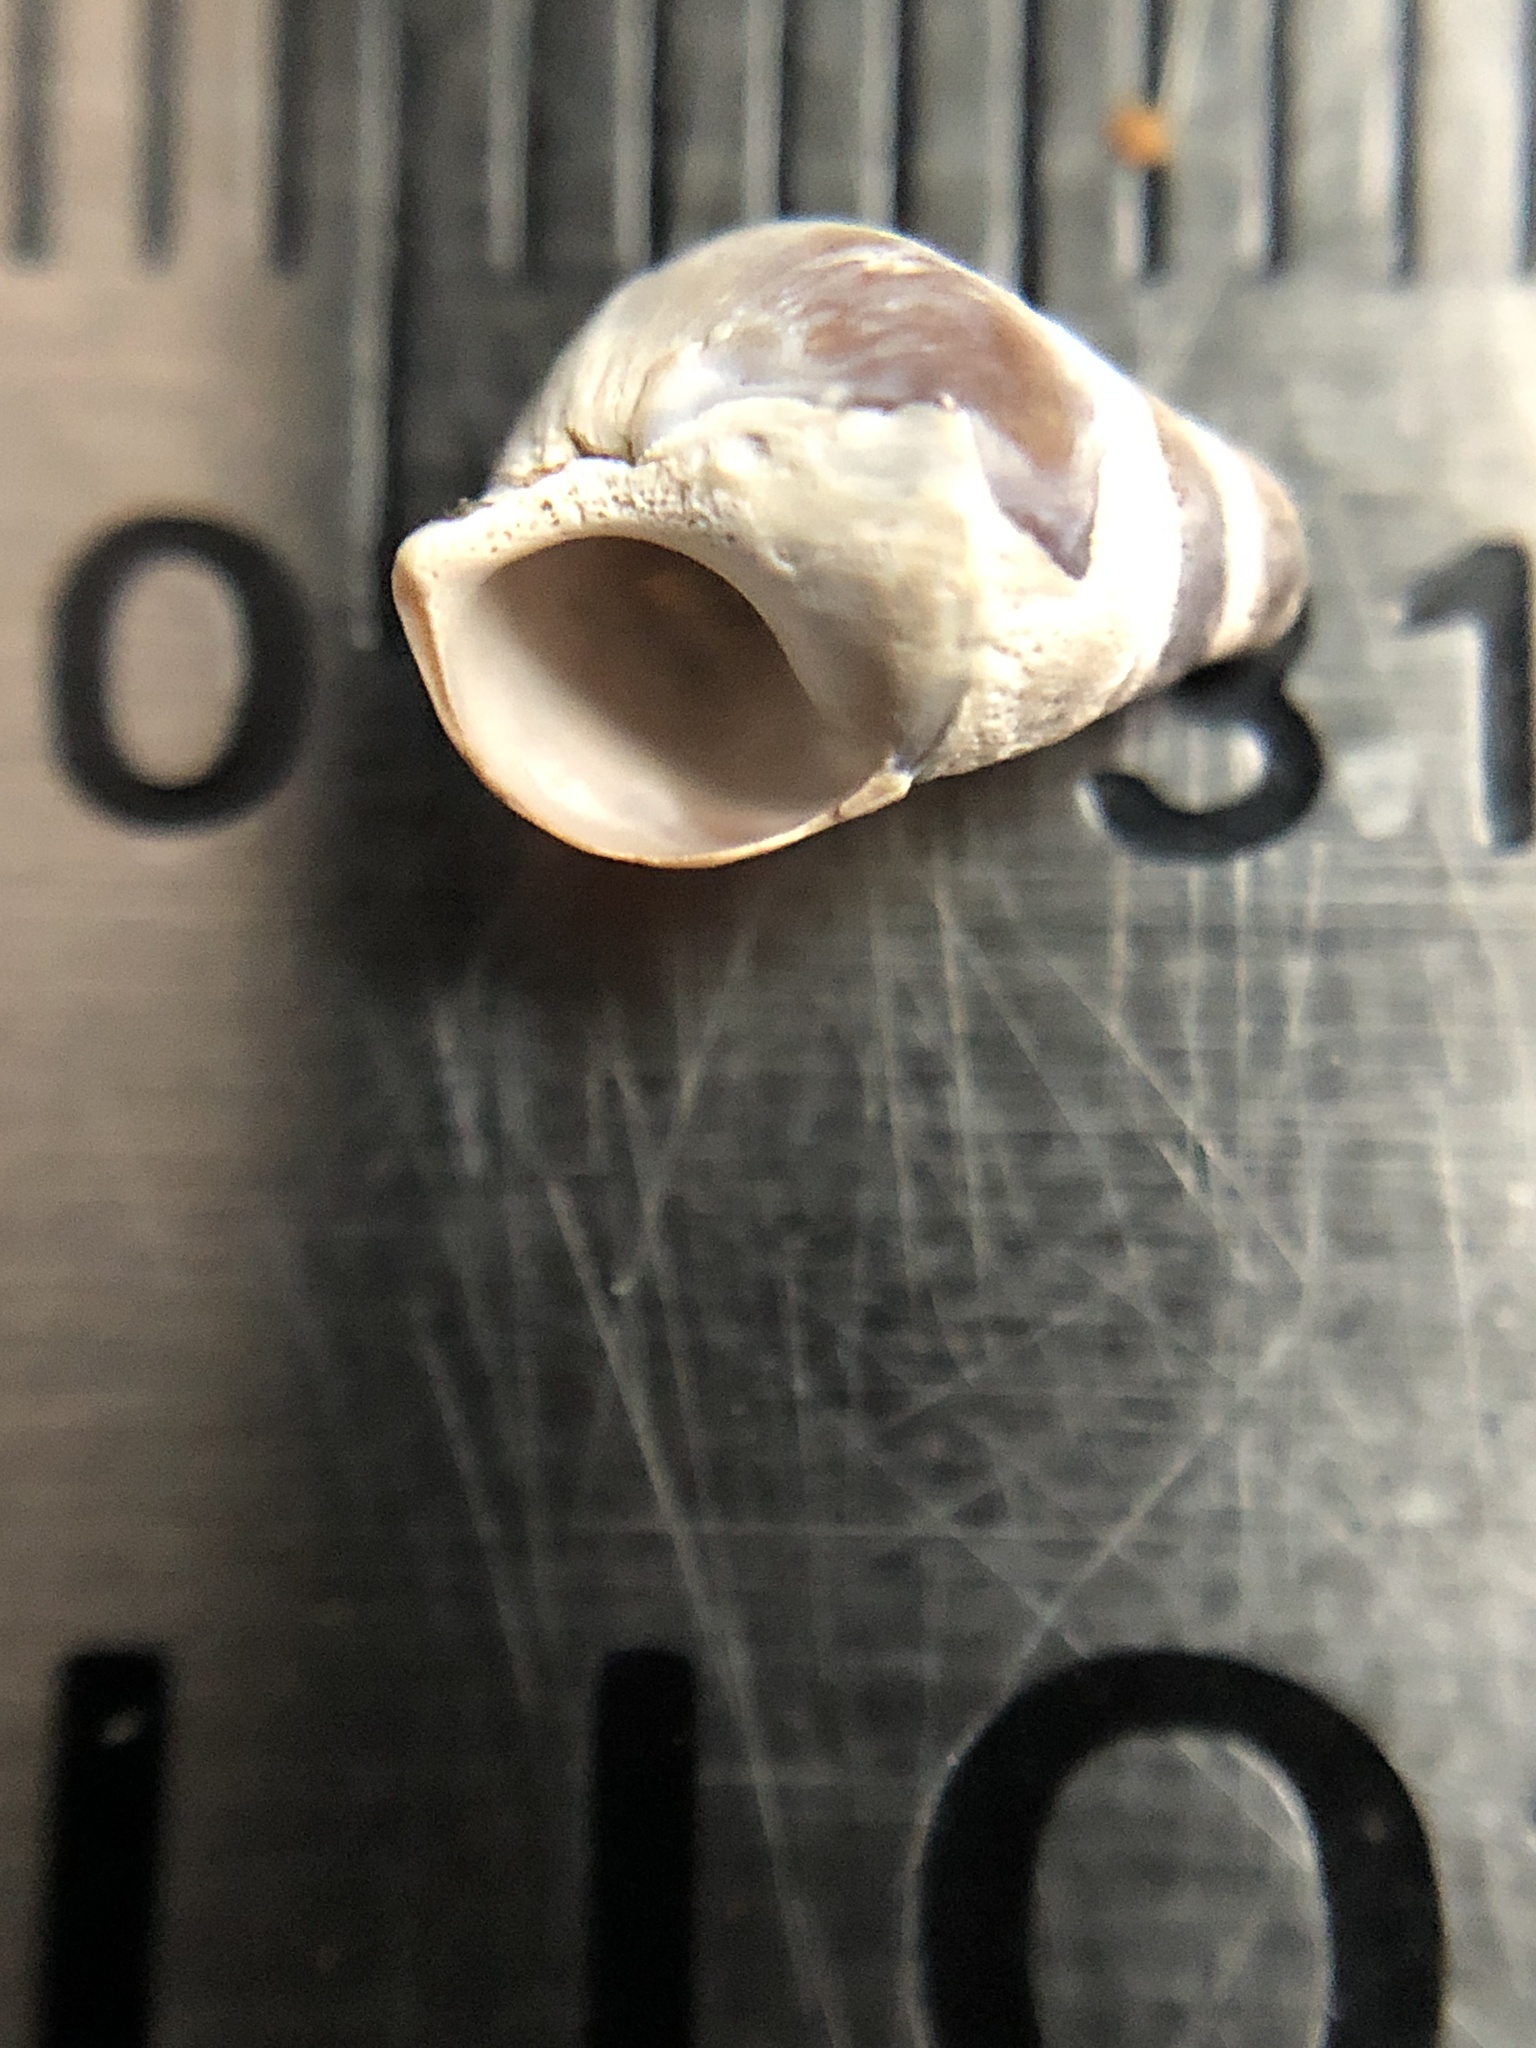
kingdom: Animalia
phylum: Mollusca
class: Gastropoda
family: Pleuroceridae
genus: Elimia
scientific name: Elimia livescens
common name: Liver elimia
